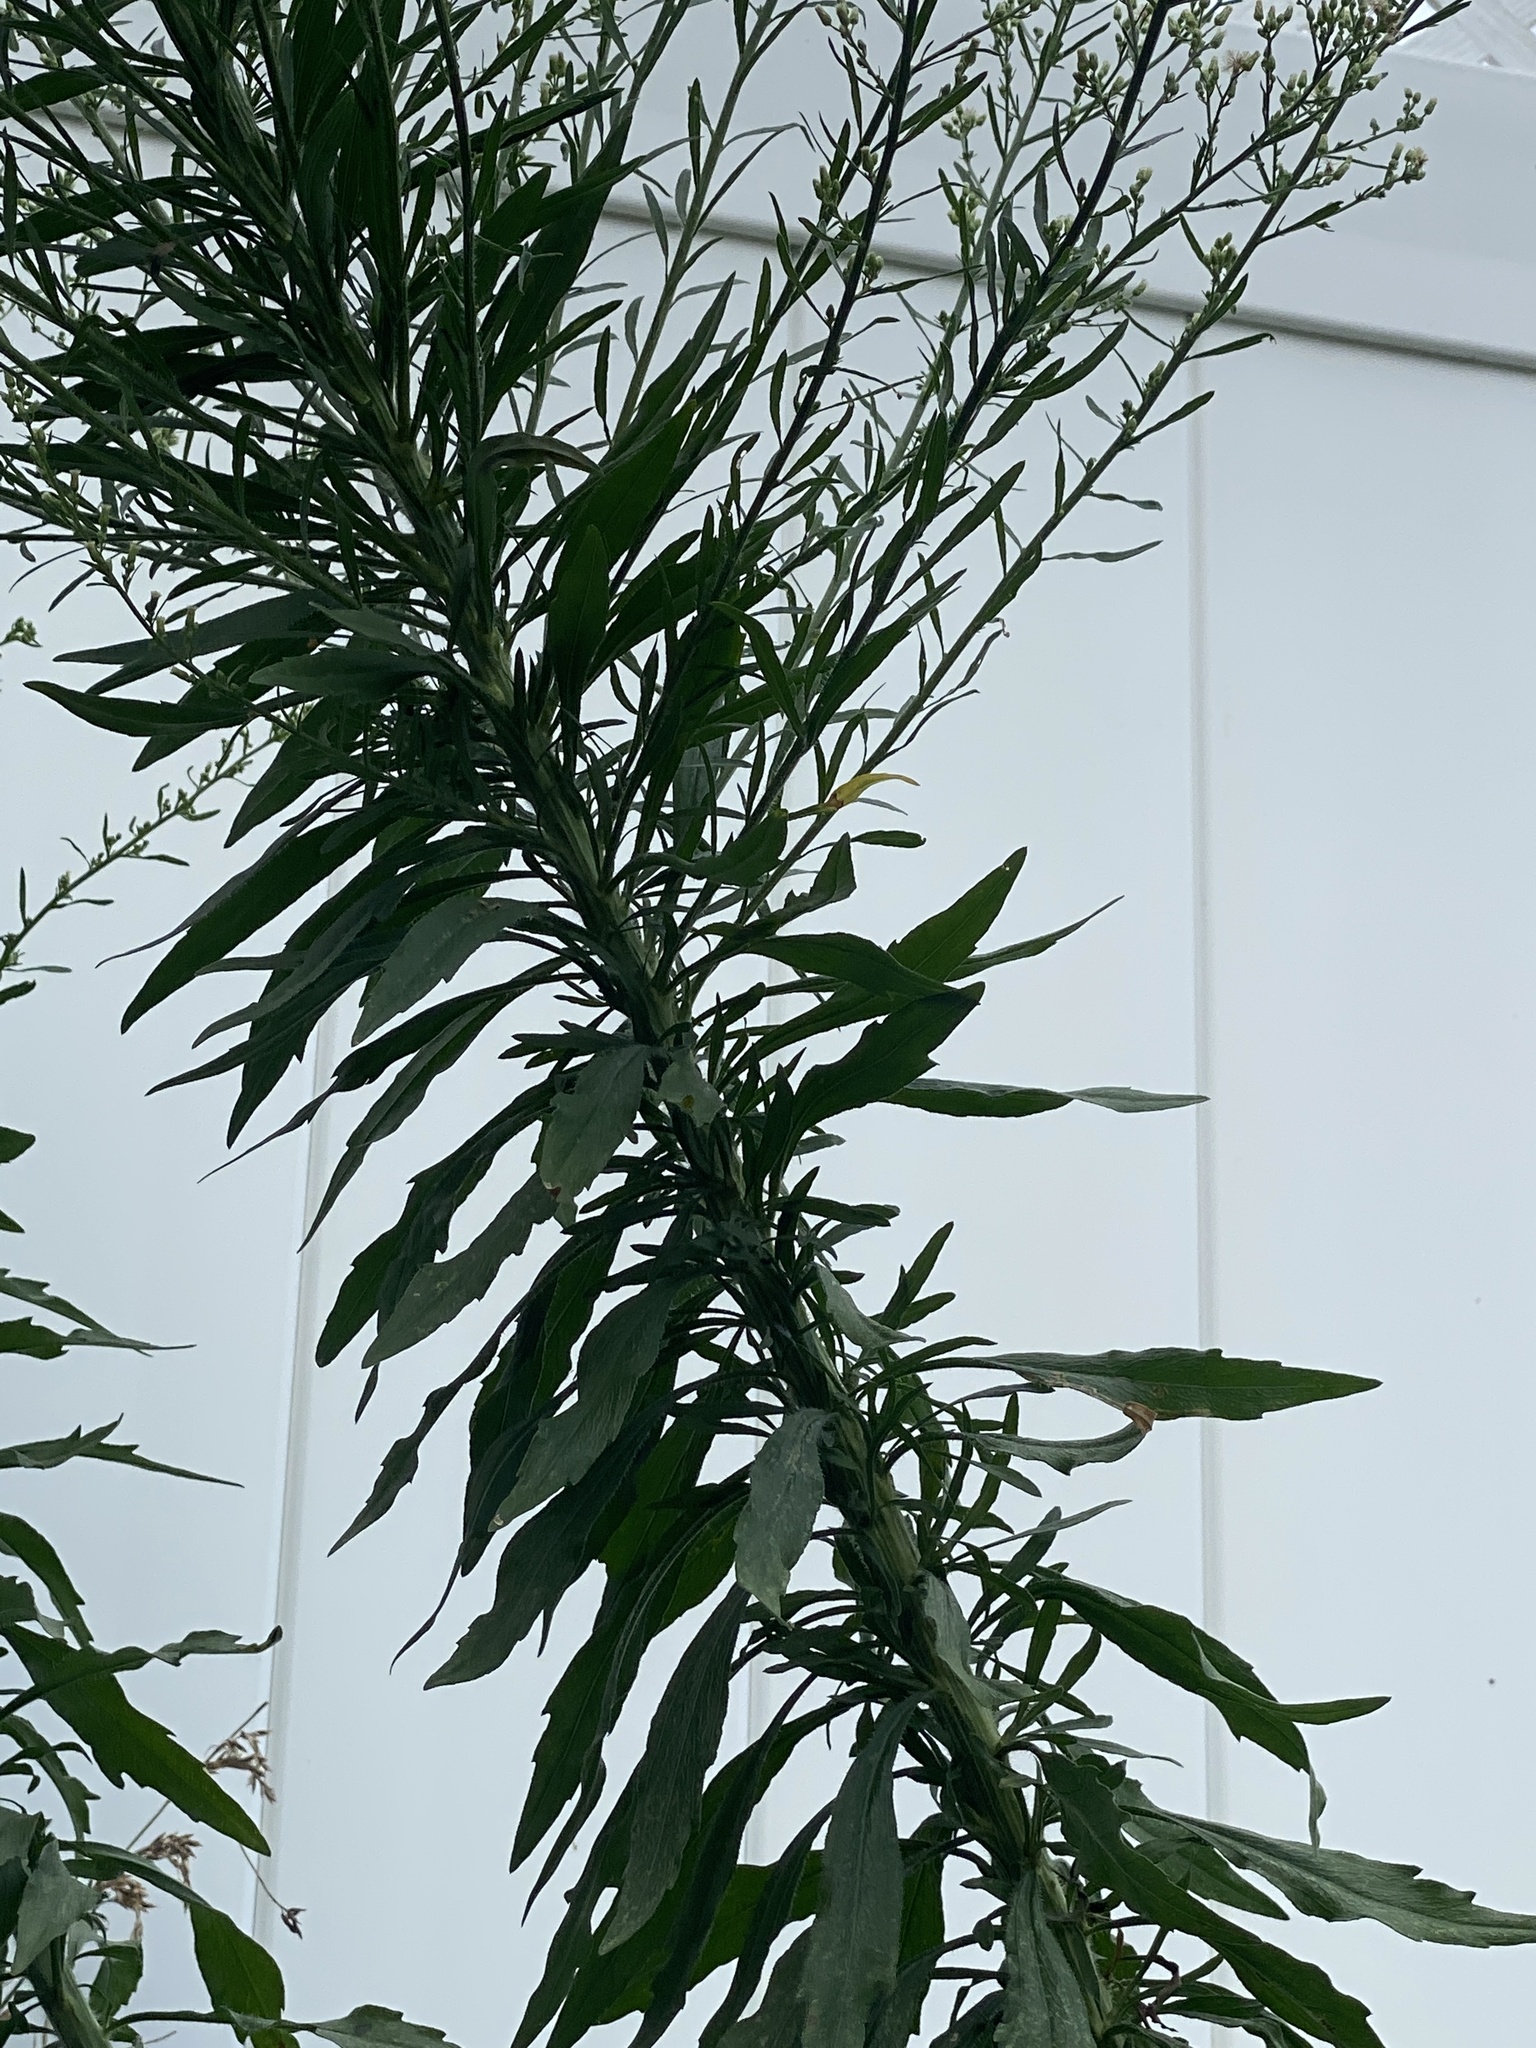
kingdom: Plantae
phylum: Tracheophyta
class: Magnoliopsida
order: Asterales
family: Asteraceae
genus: Erigeron
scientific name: Erigeron canadensis
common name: Canadian fleabane
